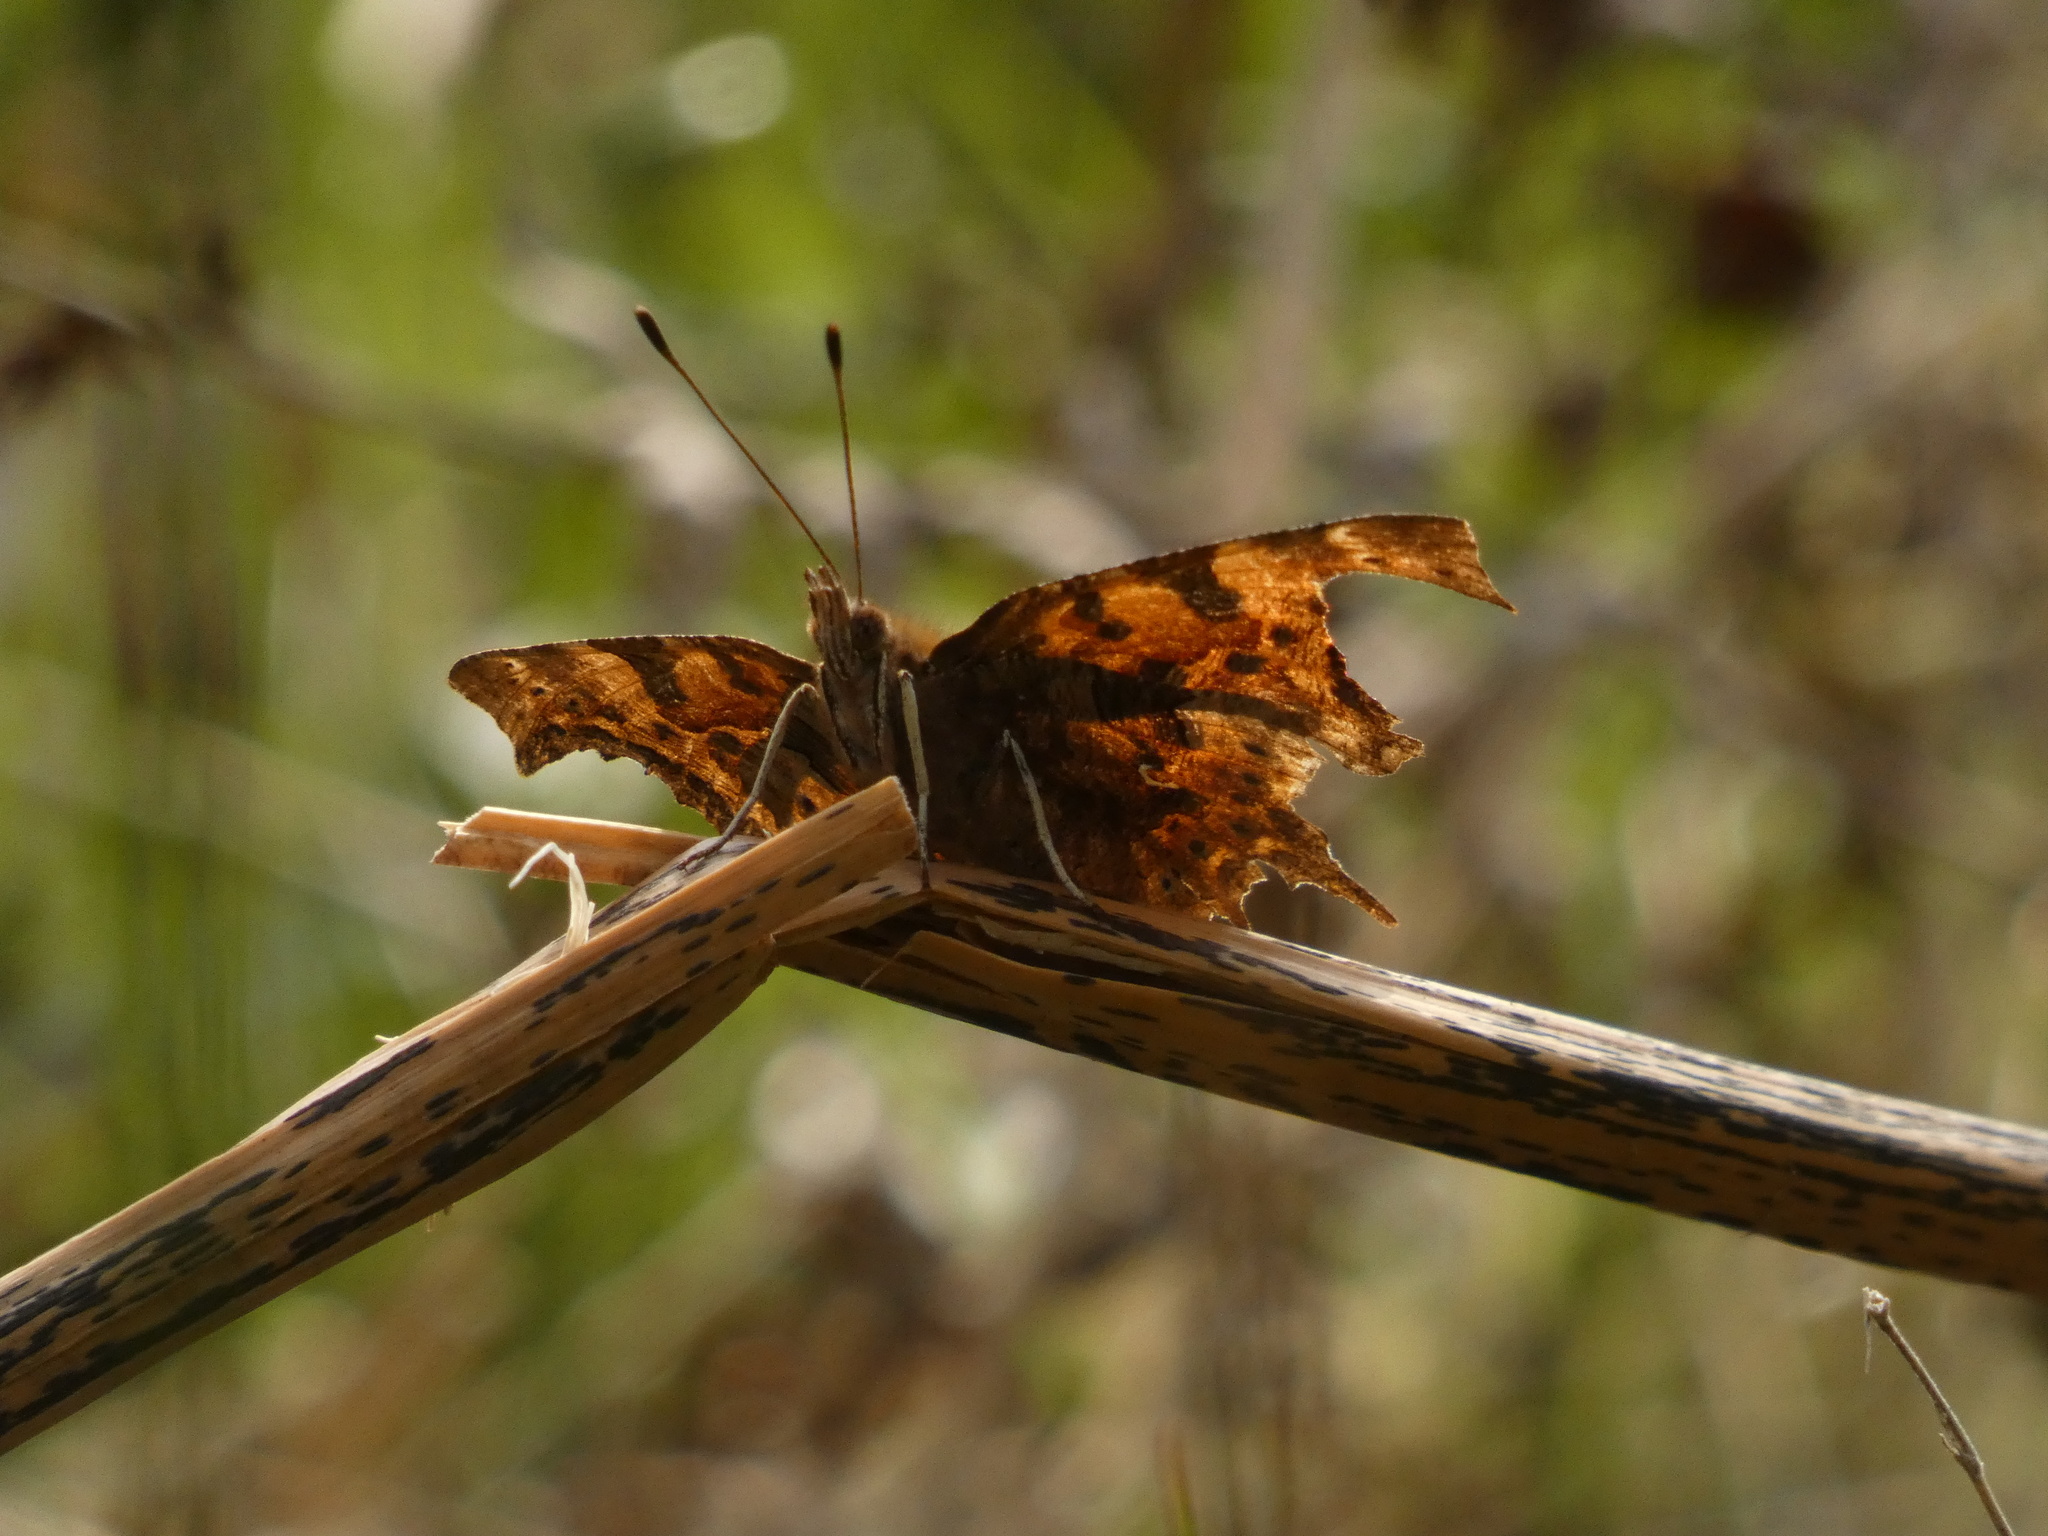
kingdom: Animalia
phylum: Arthropoda
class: Insecta
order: Lepidoptera
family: Nymphalidae
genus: Polygonia
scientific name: Polygonia c-album
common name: Comma
